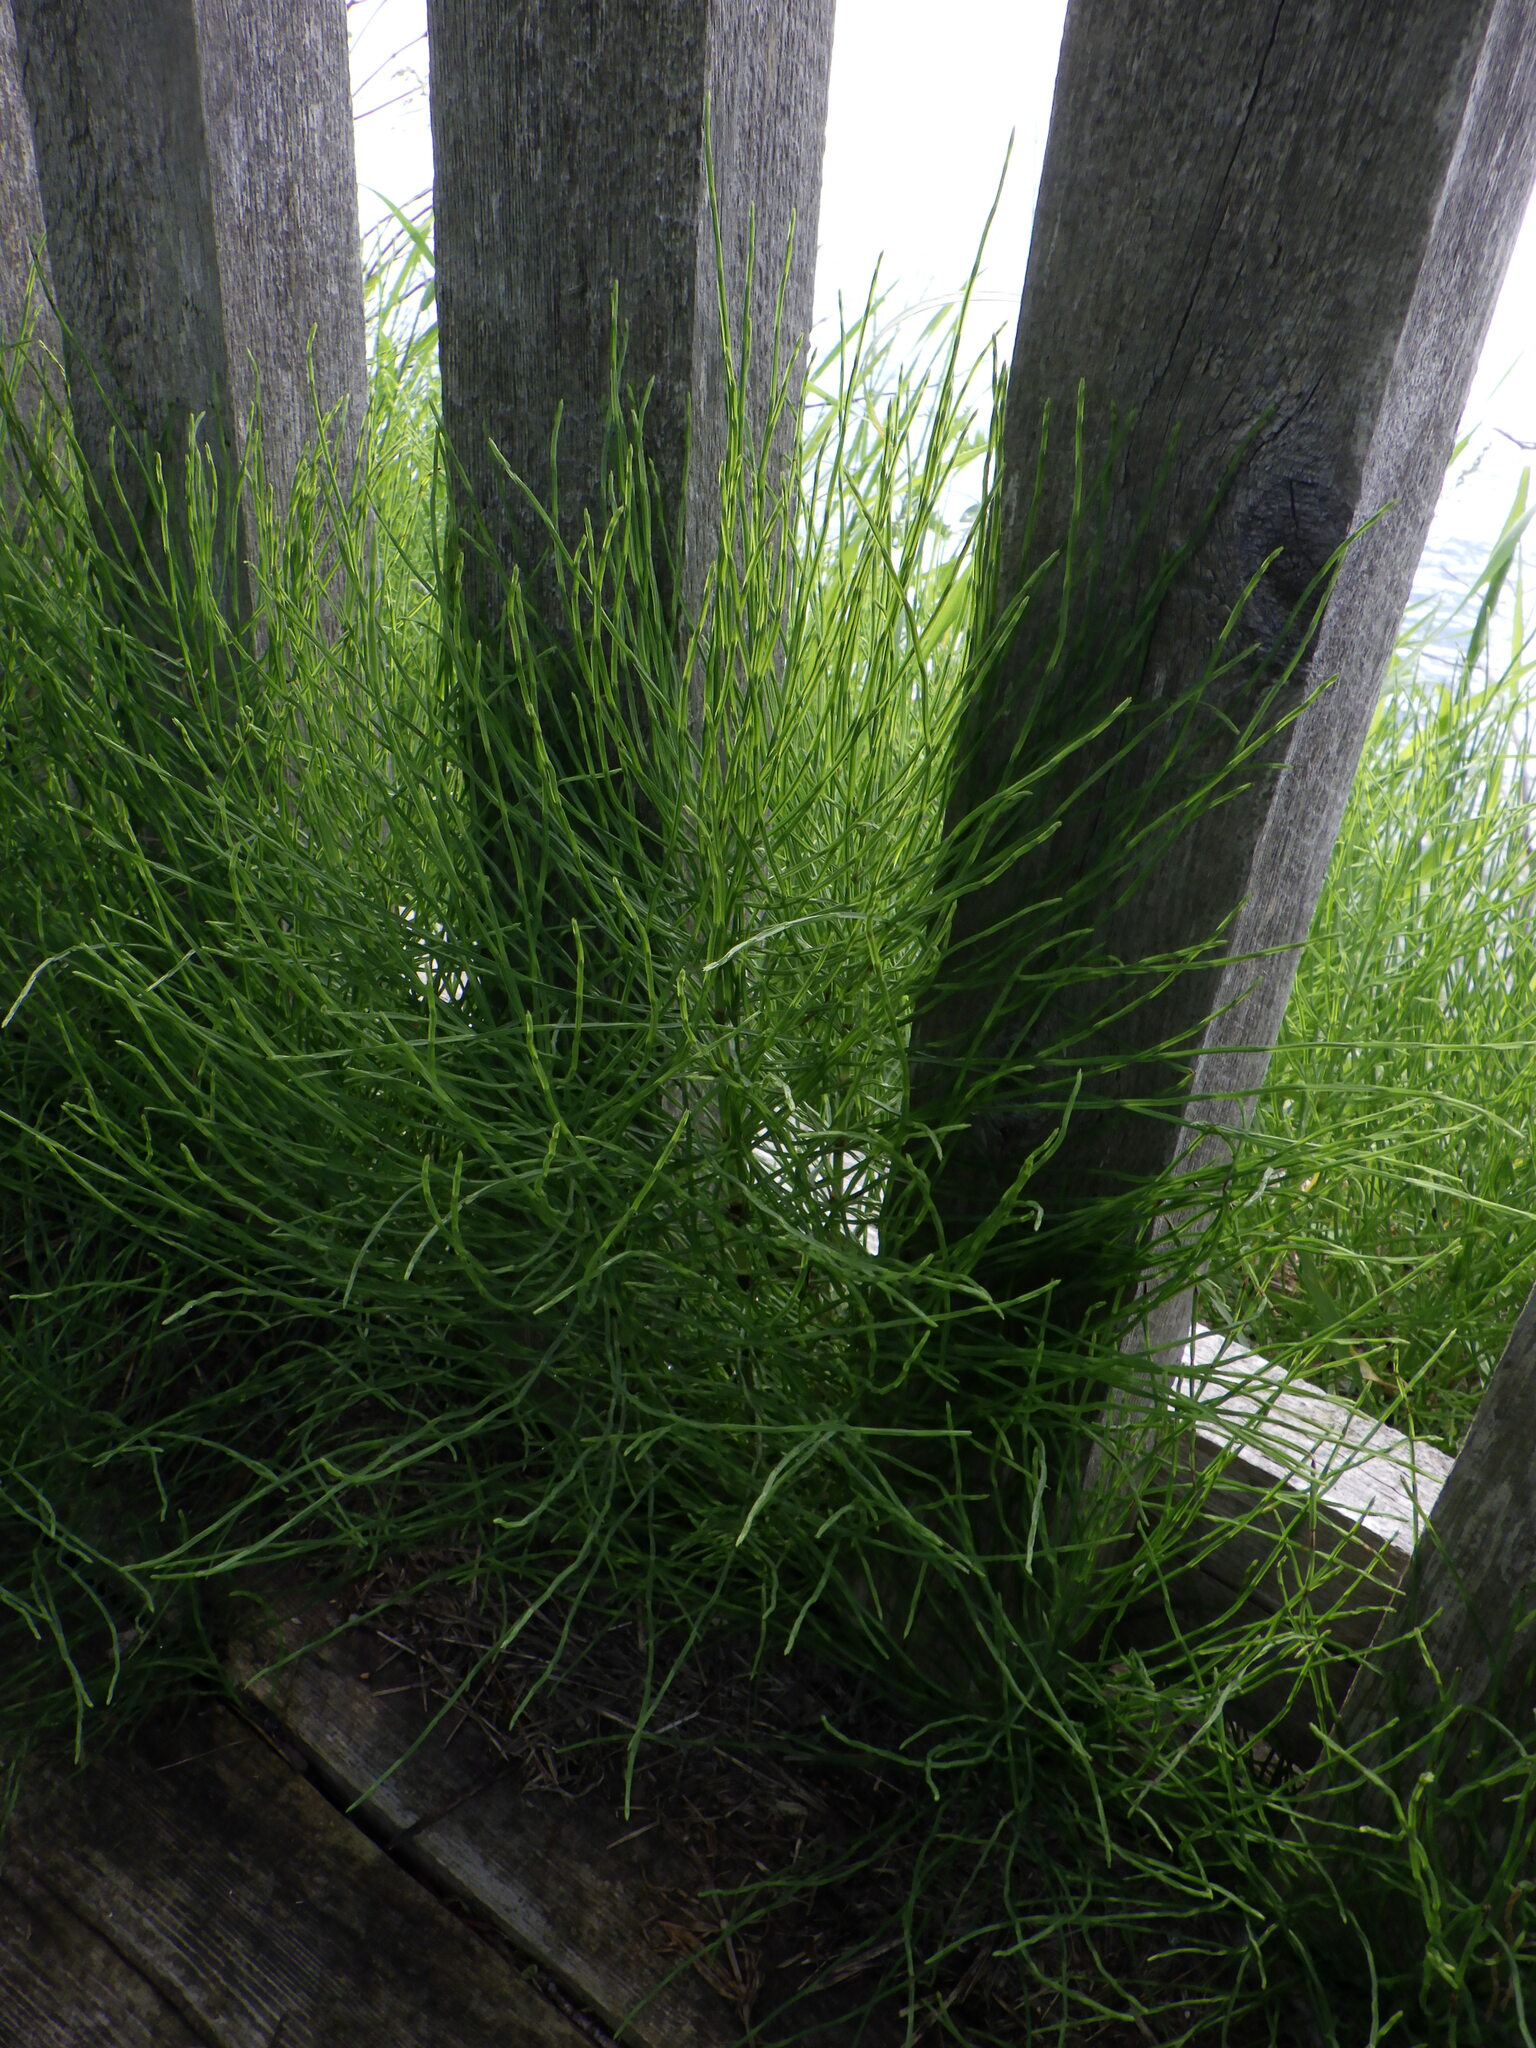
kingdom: Plantae
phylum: Tracheophyta
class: Polypodiopsida
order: Equisetales
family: Equisetaceae
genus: Equisetum
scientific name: Equisetum arvense
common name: Field horsetail
